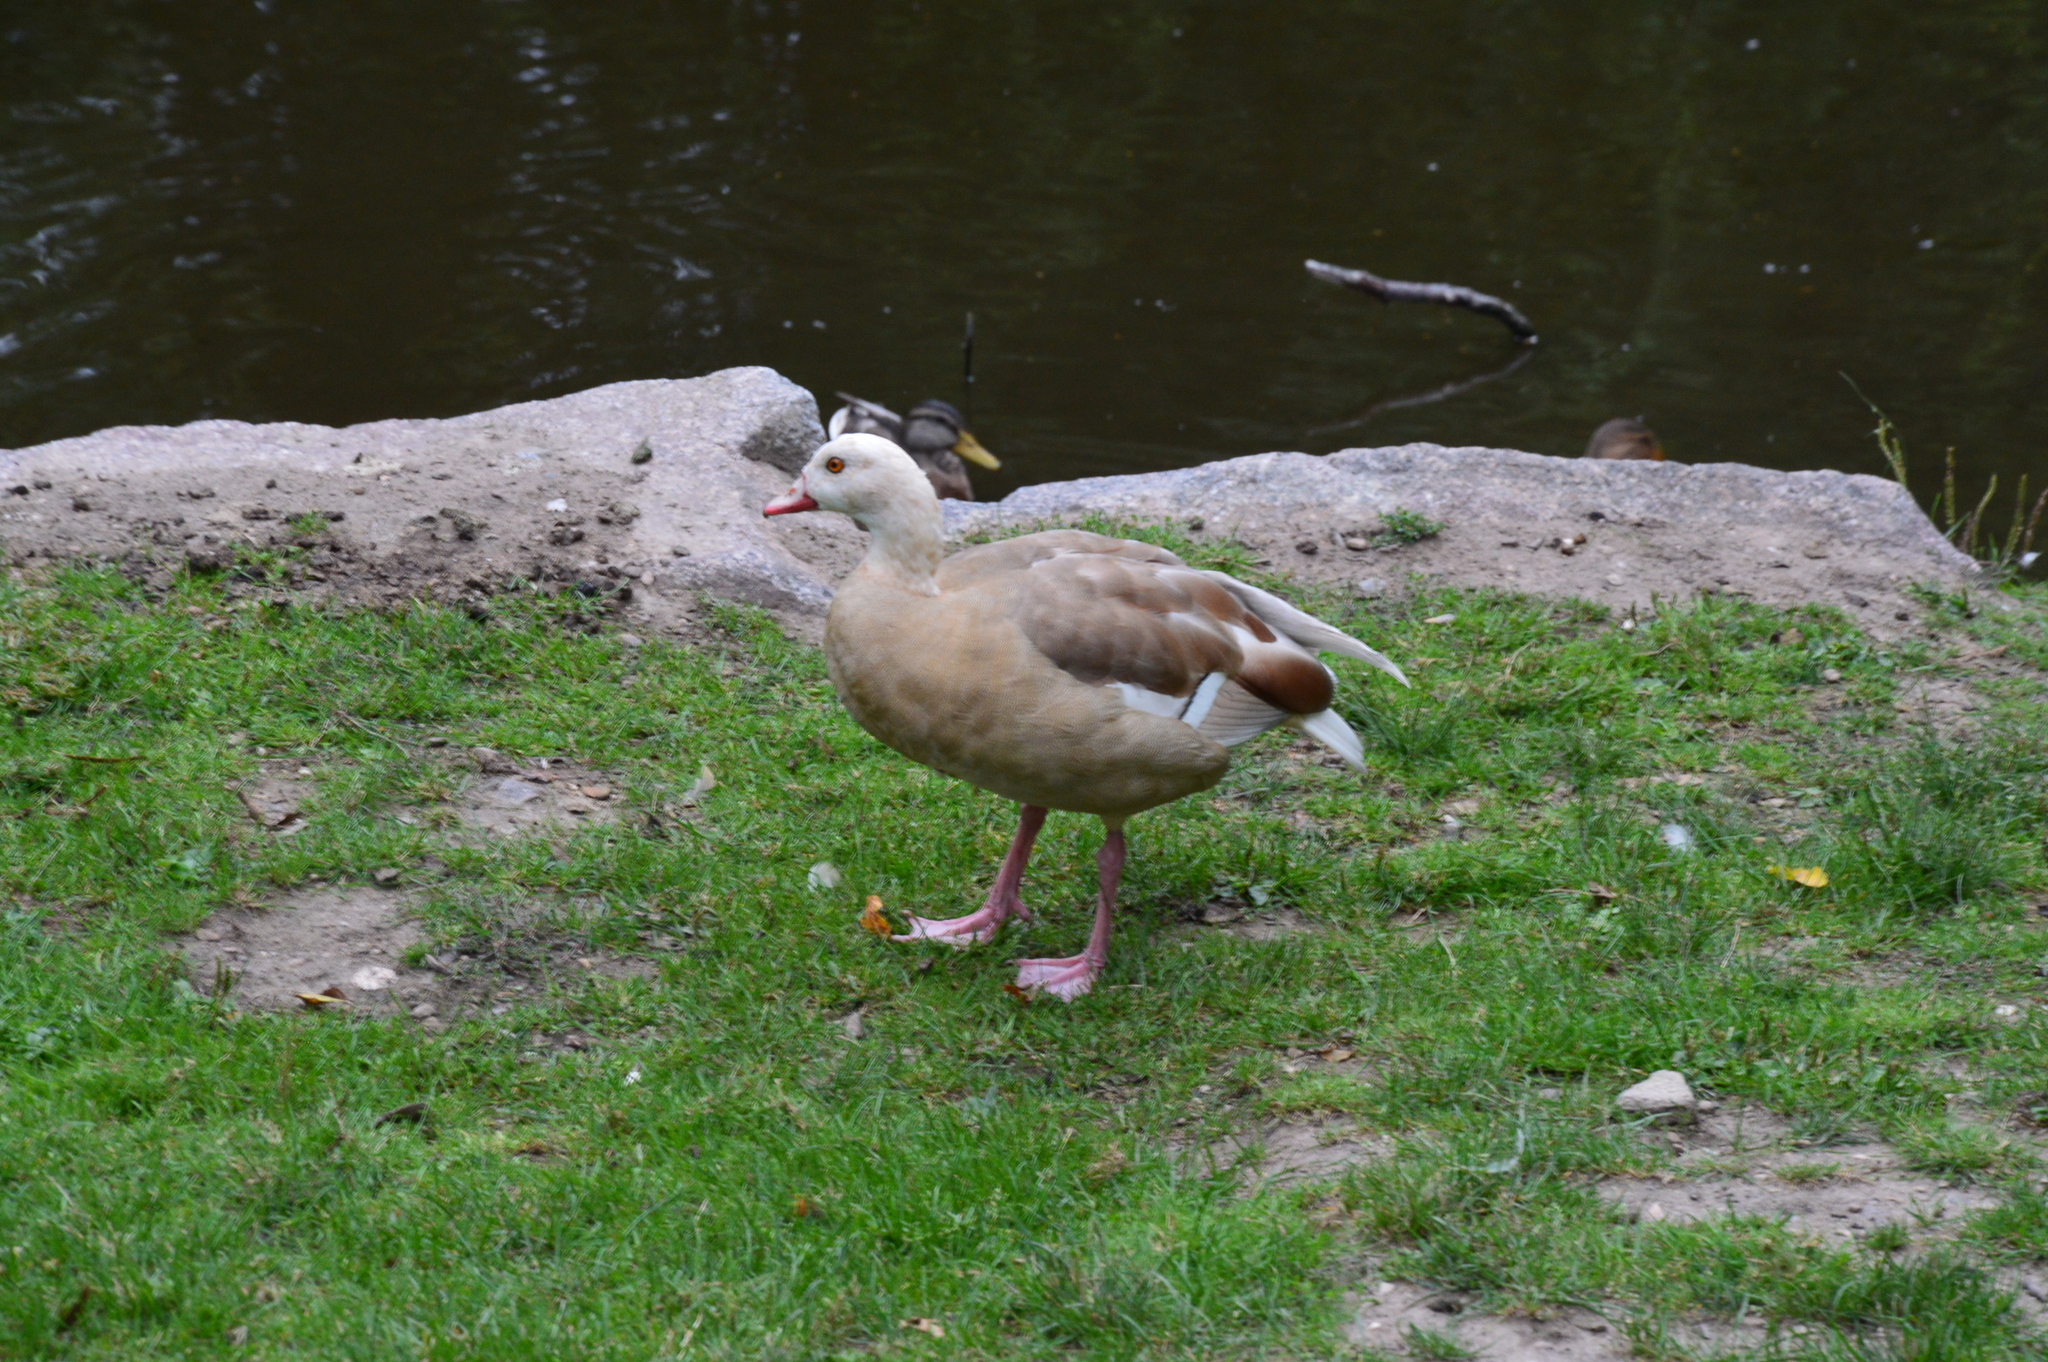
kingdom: Animalia
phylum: Chordata
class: Aves
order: Anseriformes
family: Anatidae
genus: Alopochen
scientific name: Alopochen aegyptiaca
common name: Egyptian goose
